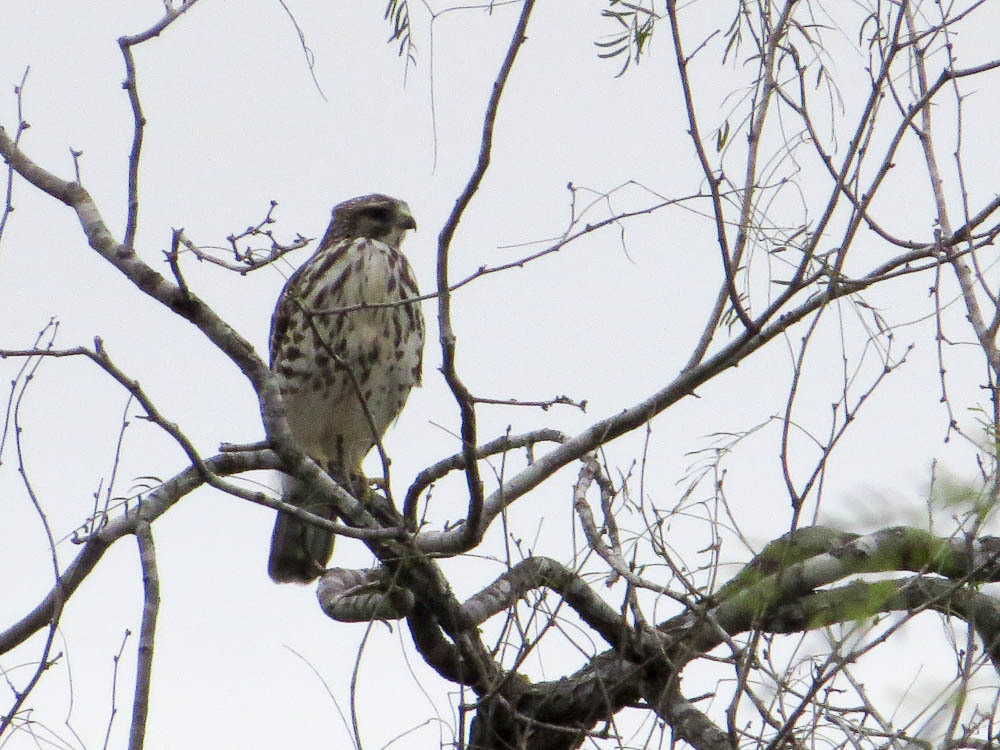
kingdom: Animalia
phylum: Chordata
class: Aves
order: Accipitriformes
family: Accipitridae
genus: Buteo
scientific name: Buteo nitidus
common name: Grey-lined hawk
